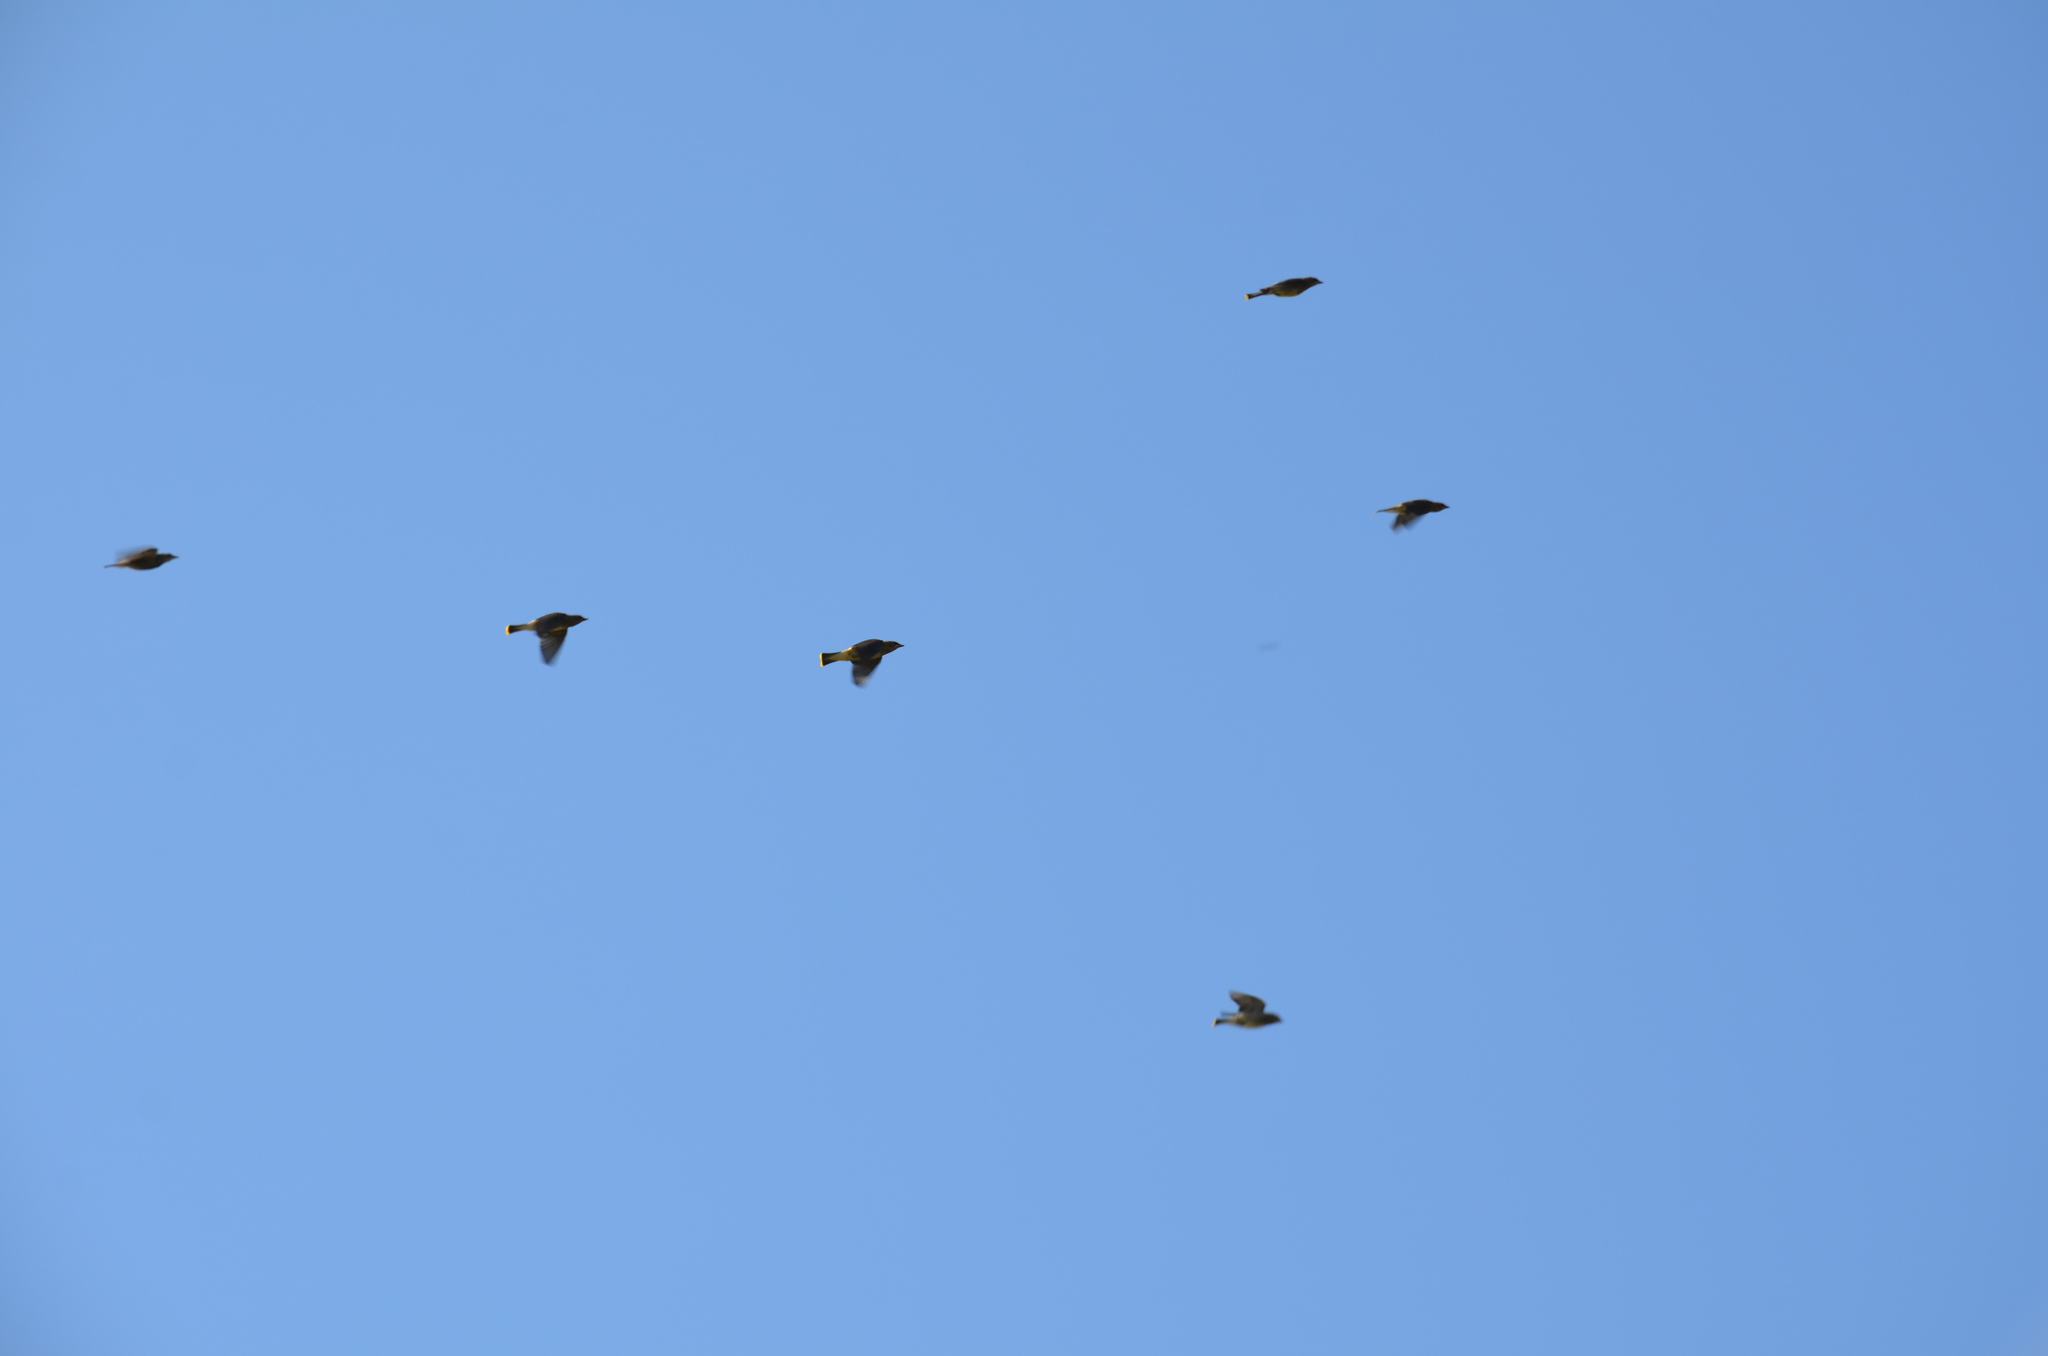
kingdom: Animalia
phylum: Chordata
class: Aves
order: Passeriformes
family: Bombycillidae
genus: Bombycilla
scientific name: Bombycilla cedrorum
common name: Cedar waxwing
